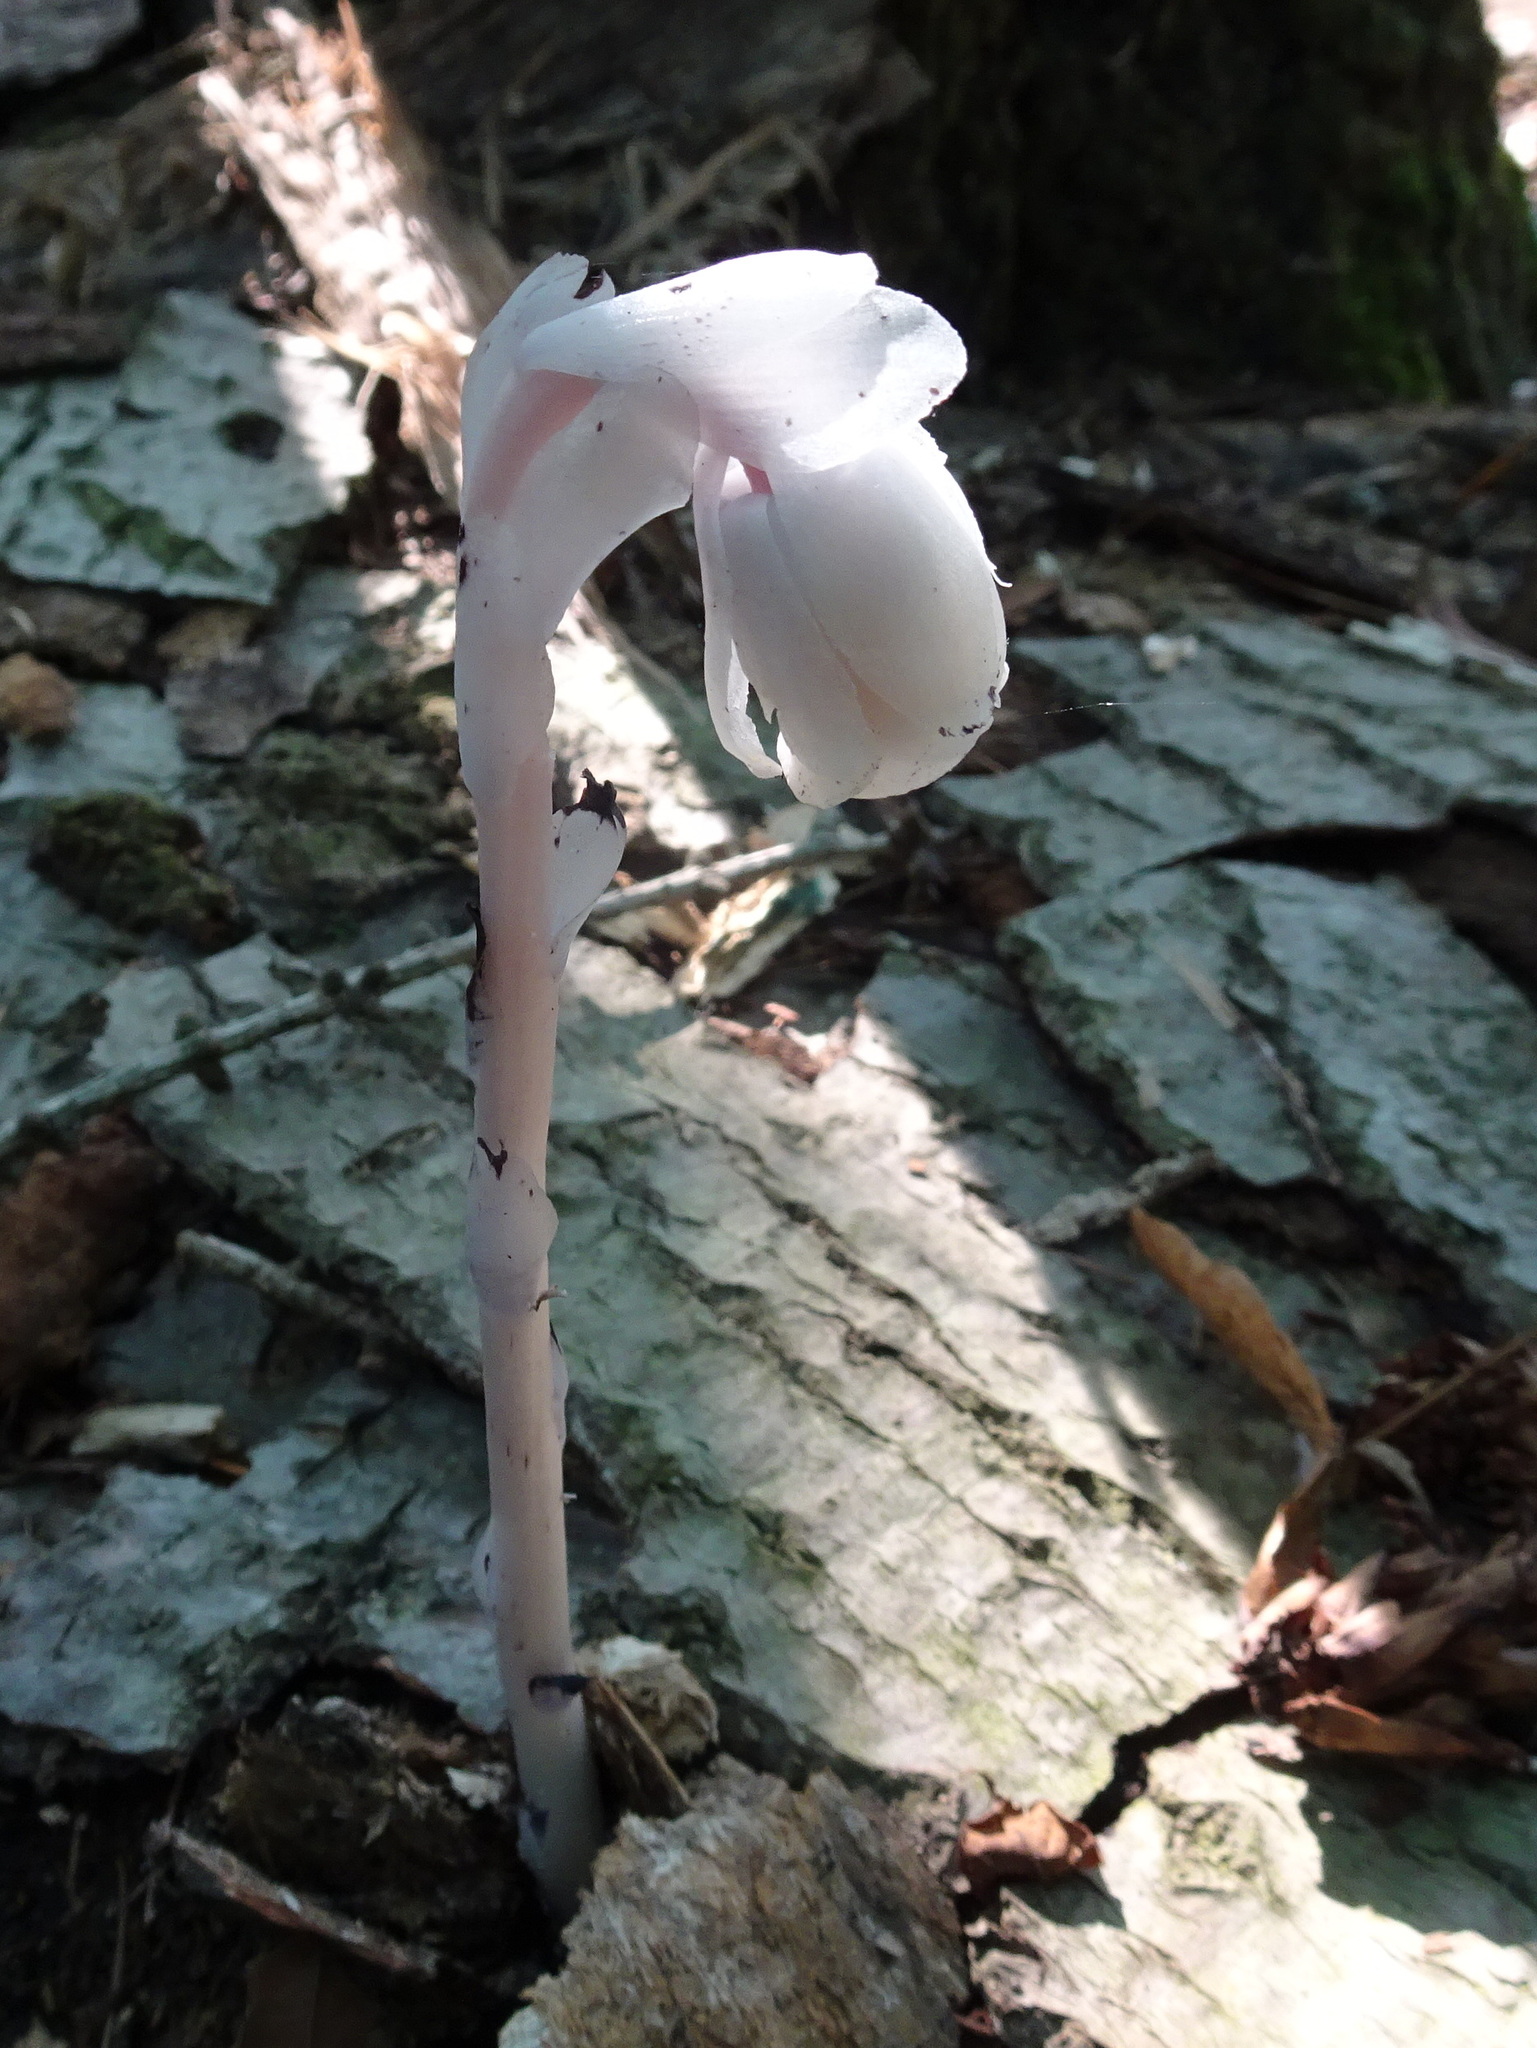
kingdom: Plantae
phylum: Tracheophyta
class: Magnoliopsida
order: Ericales
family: Ericaceae
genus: Monotropa
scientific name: Monotropa uniflora
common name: Convulsion root
